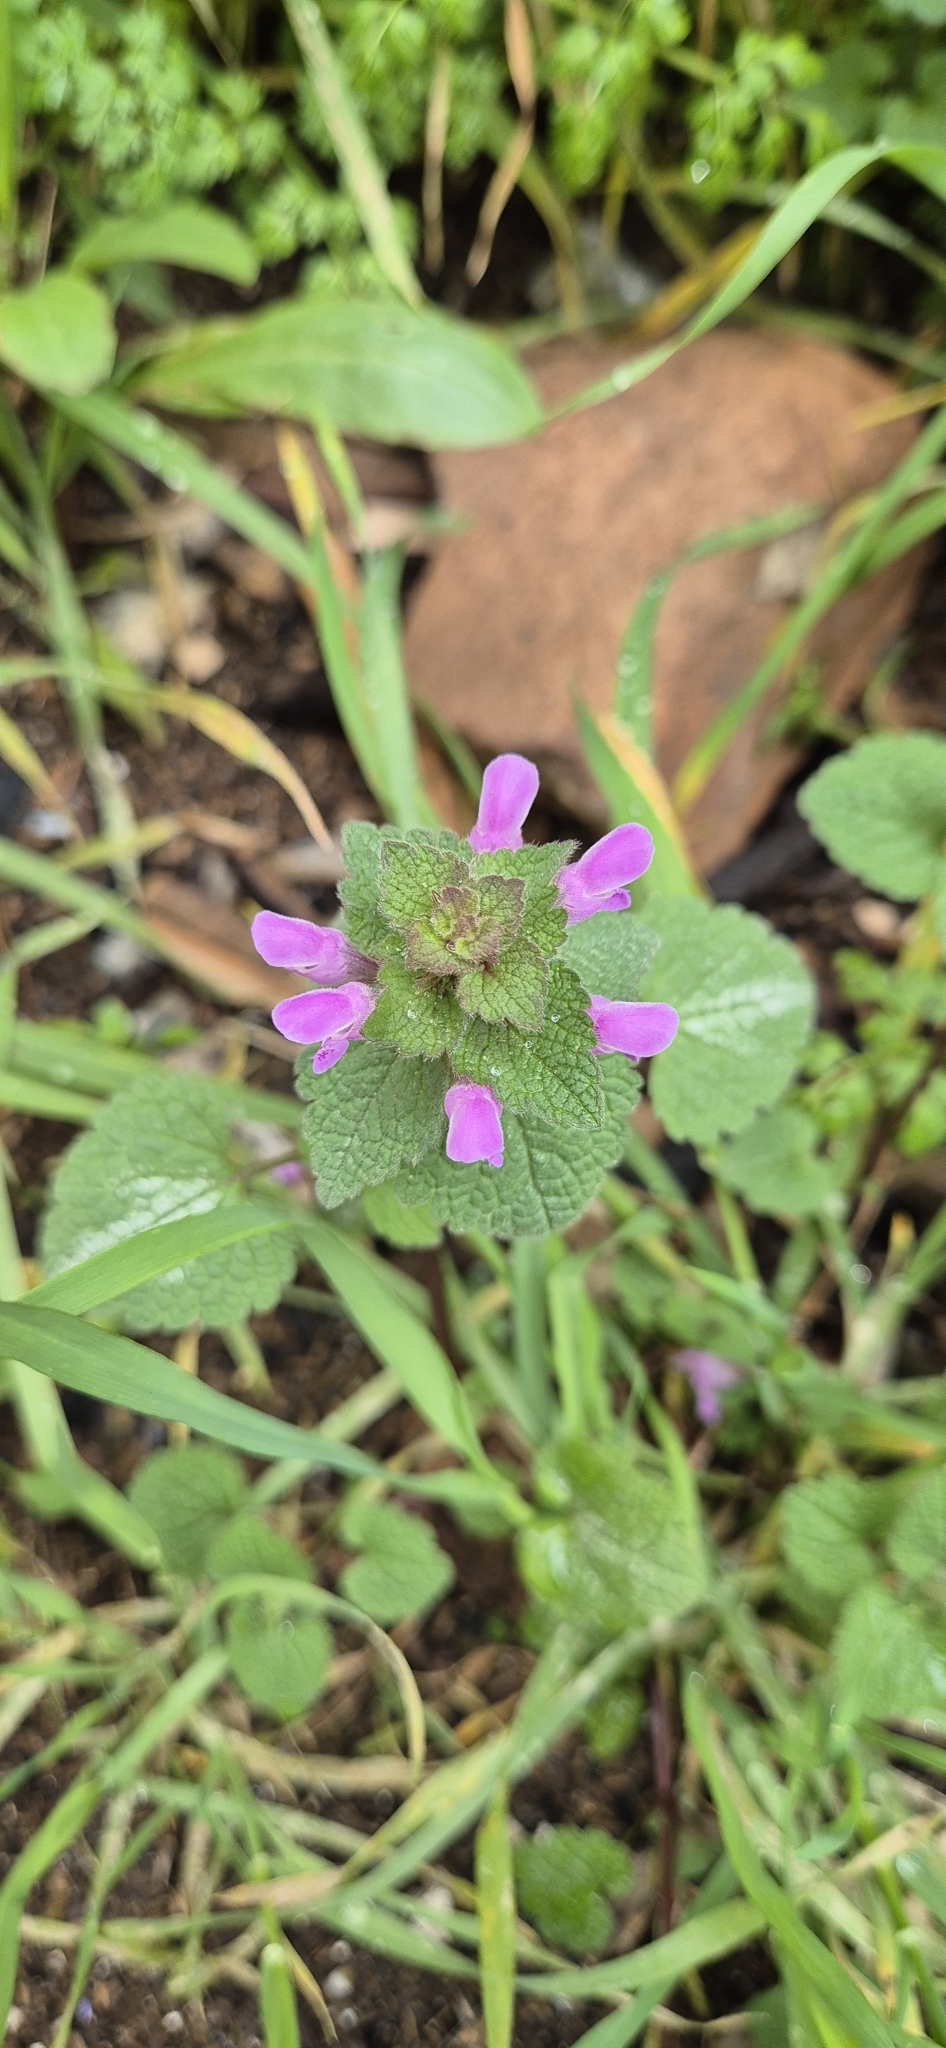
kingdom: Plantae
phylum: Tracheophyta
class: Magnoliopsida
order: Lamiales
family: Lamiaceae
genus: Lamium
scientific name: Lamium purpureum
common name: Red dead-nettle
